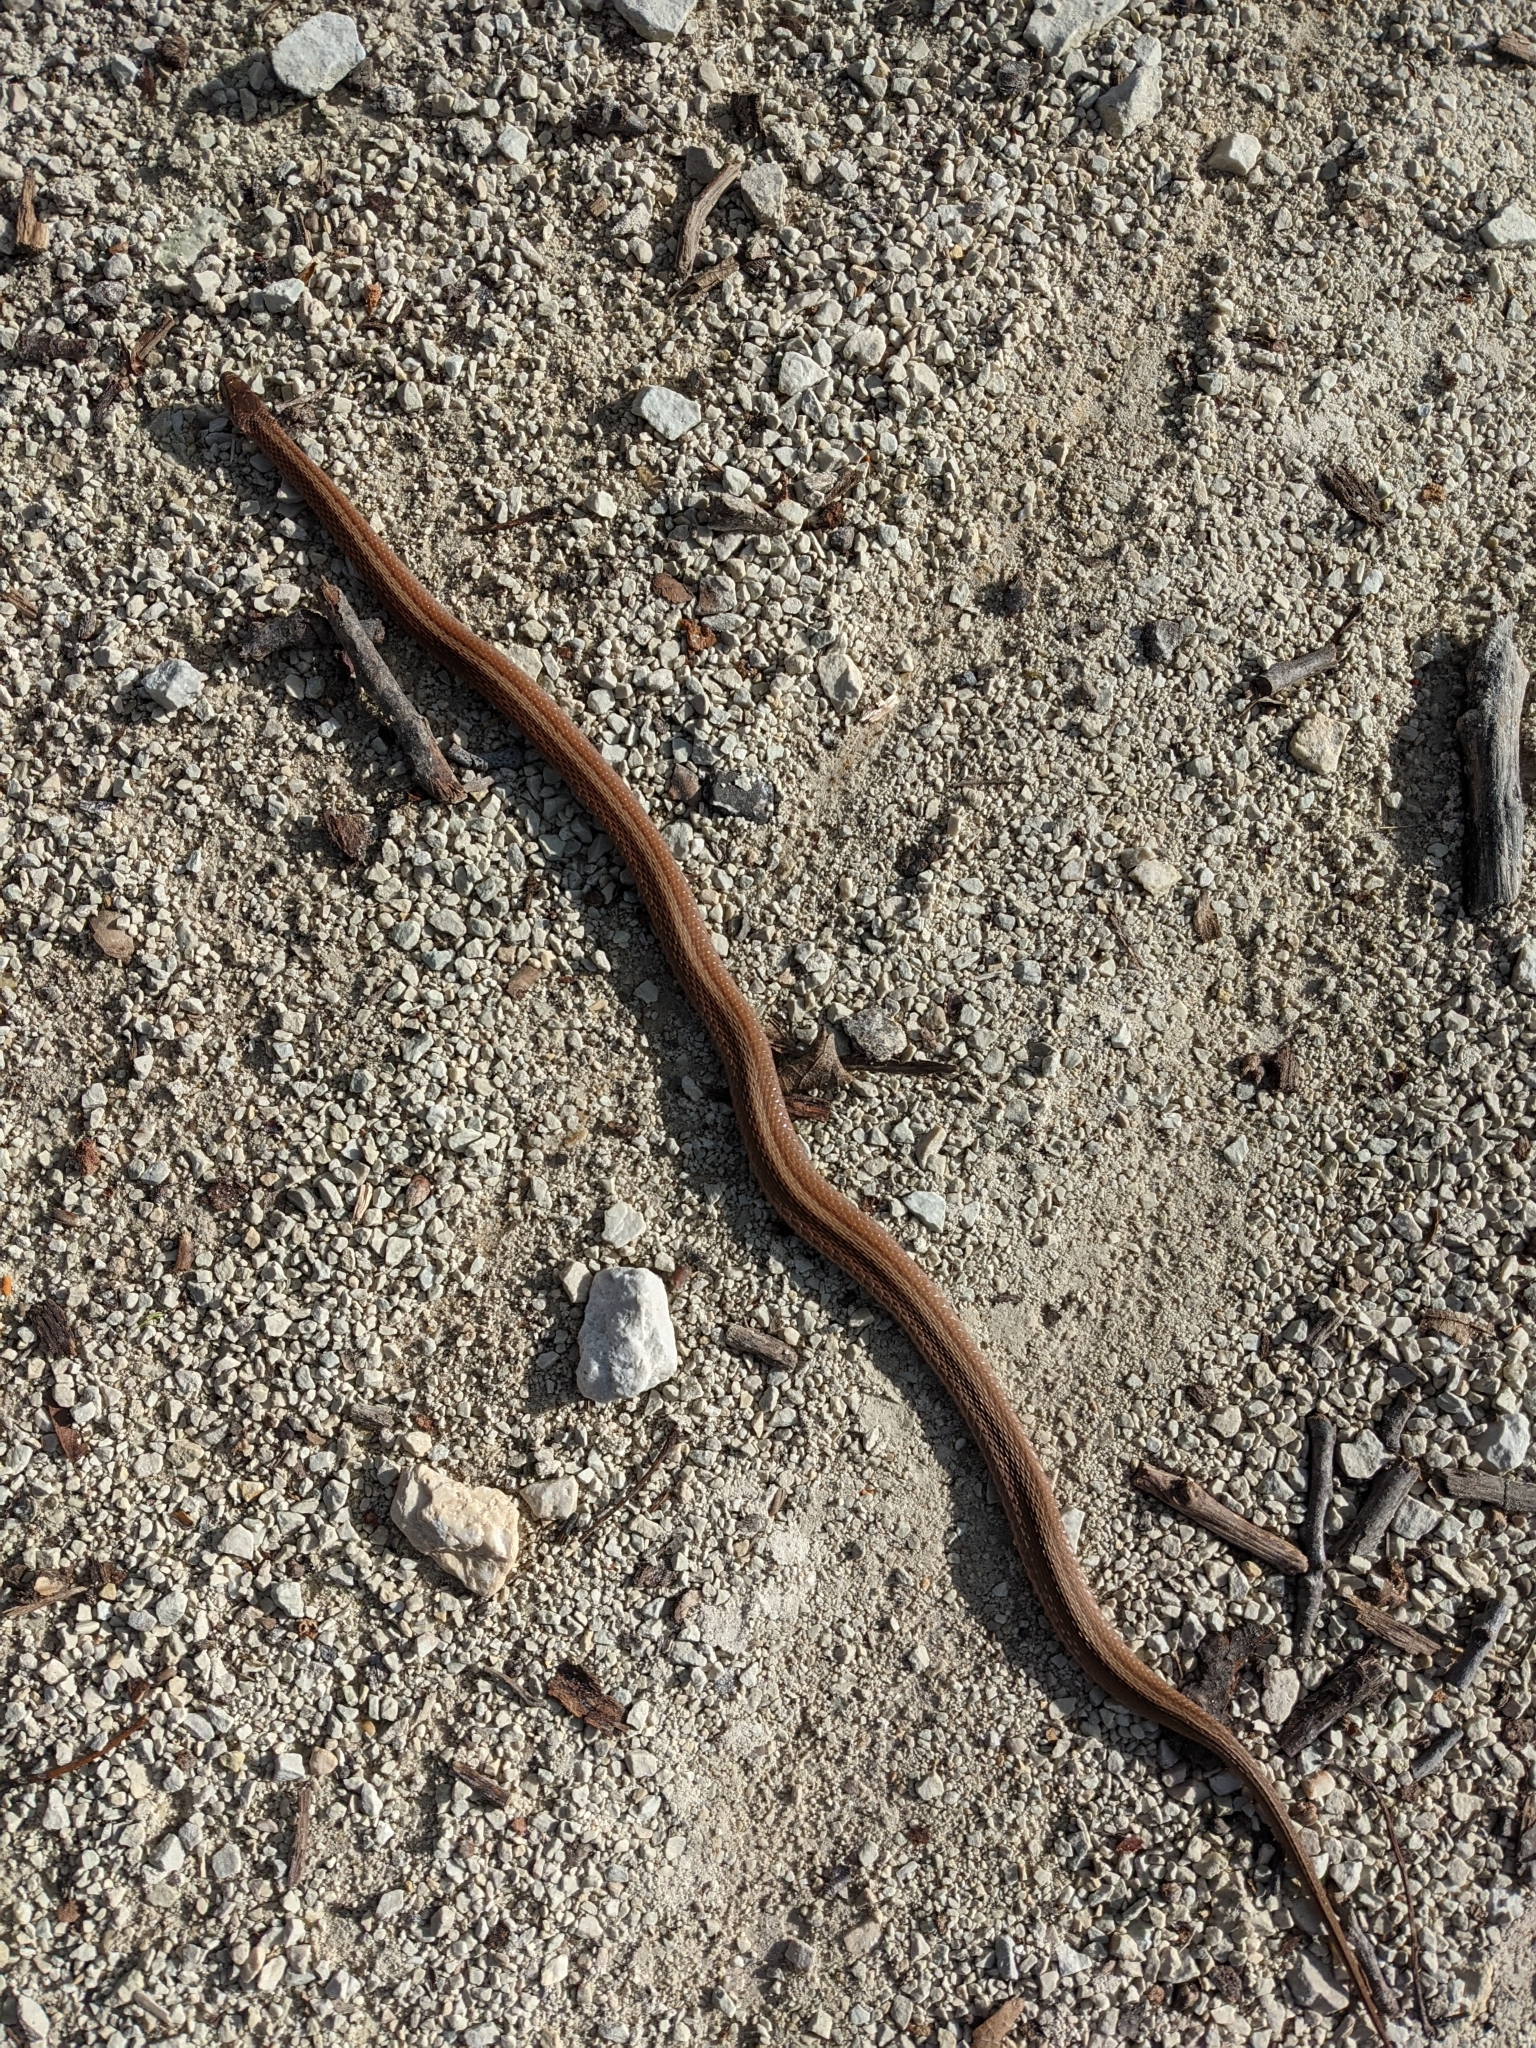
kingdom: Animalia
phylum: Chordata
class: Squamata
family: Colubridae
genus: Storeria
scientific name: Storeria dekayi
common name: (dekay’s) brown snake
